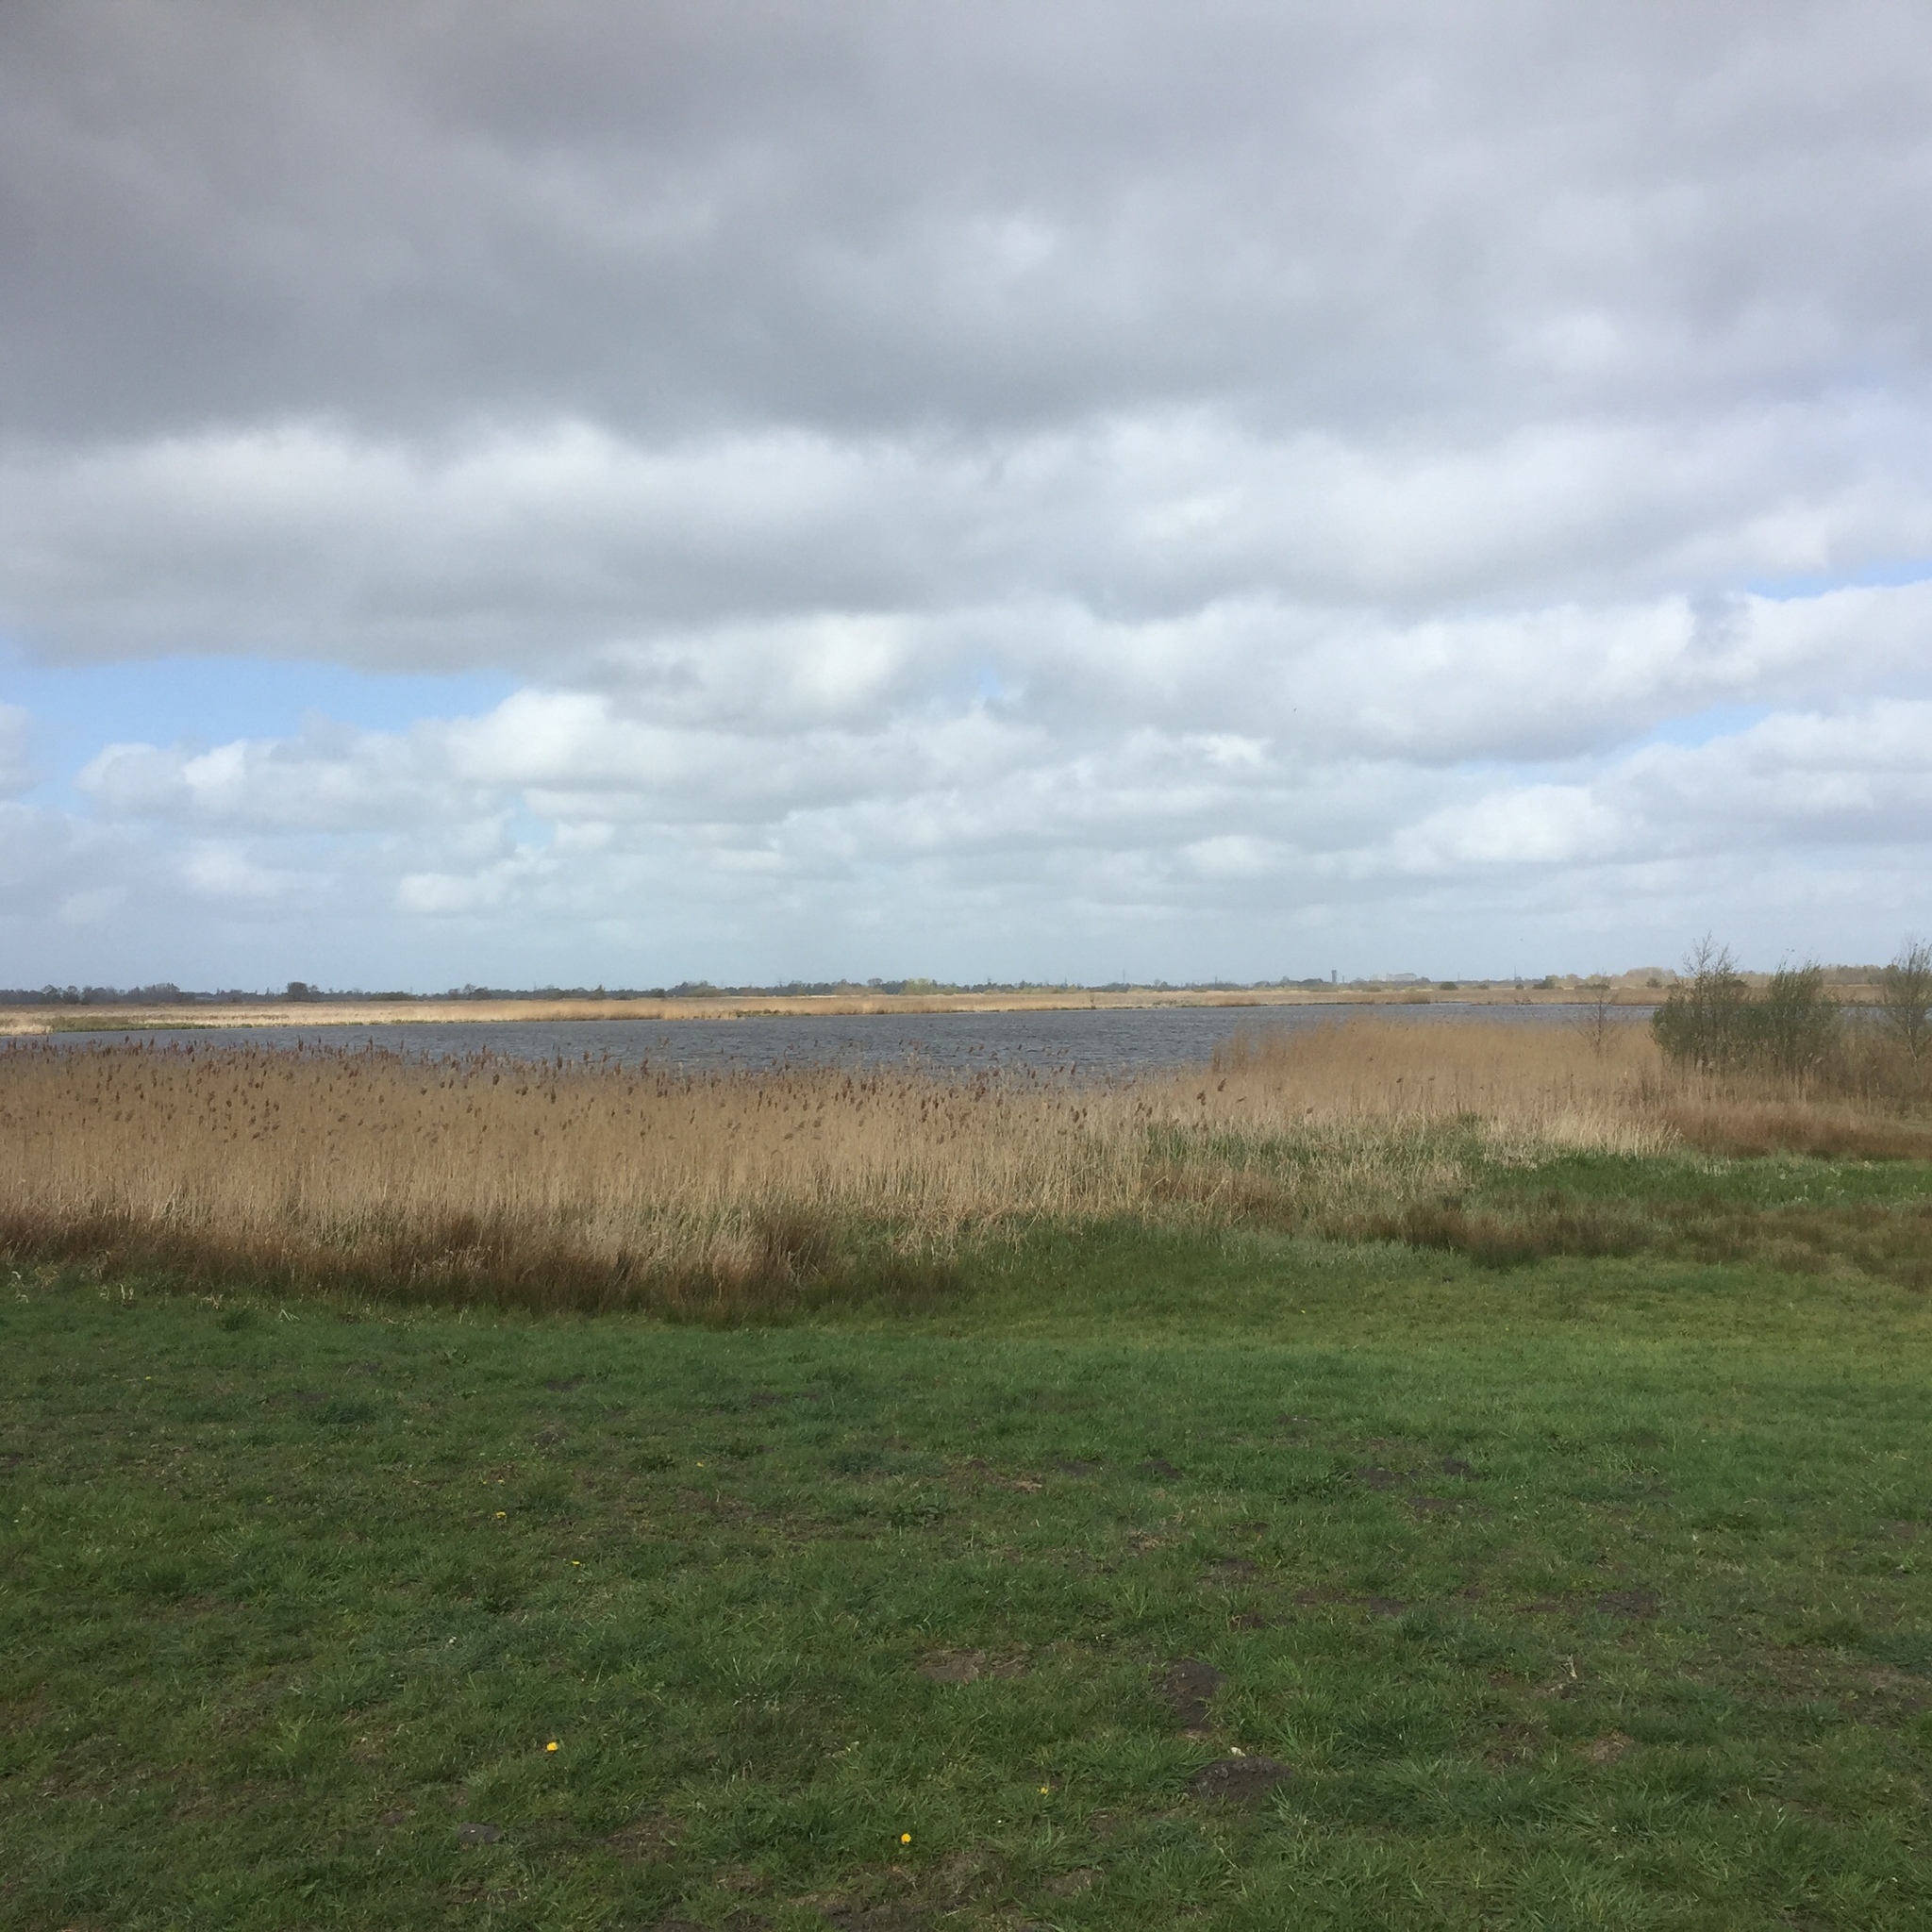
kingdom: Plantae
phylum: Tracheophyta
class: Liliopsida
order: Poales
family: Poaceae
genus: Phragmites
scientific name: Phragmites australis
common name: Common reed
